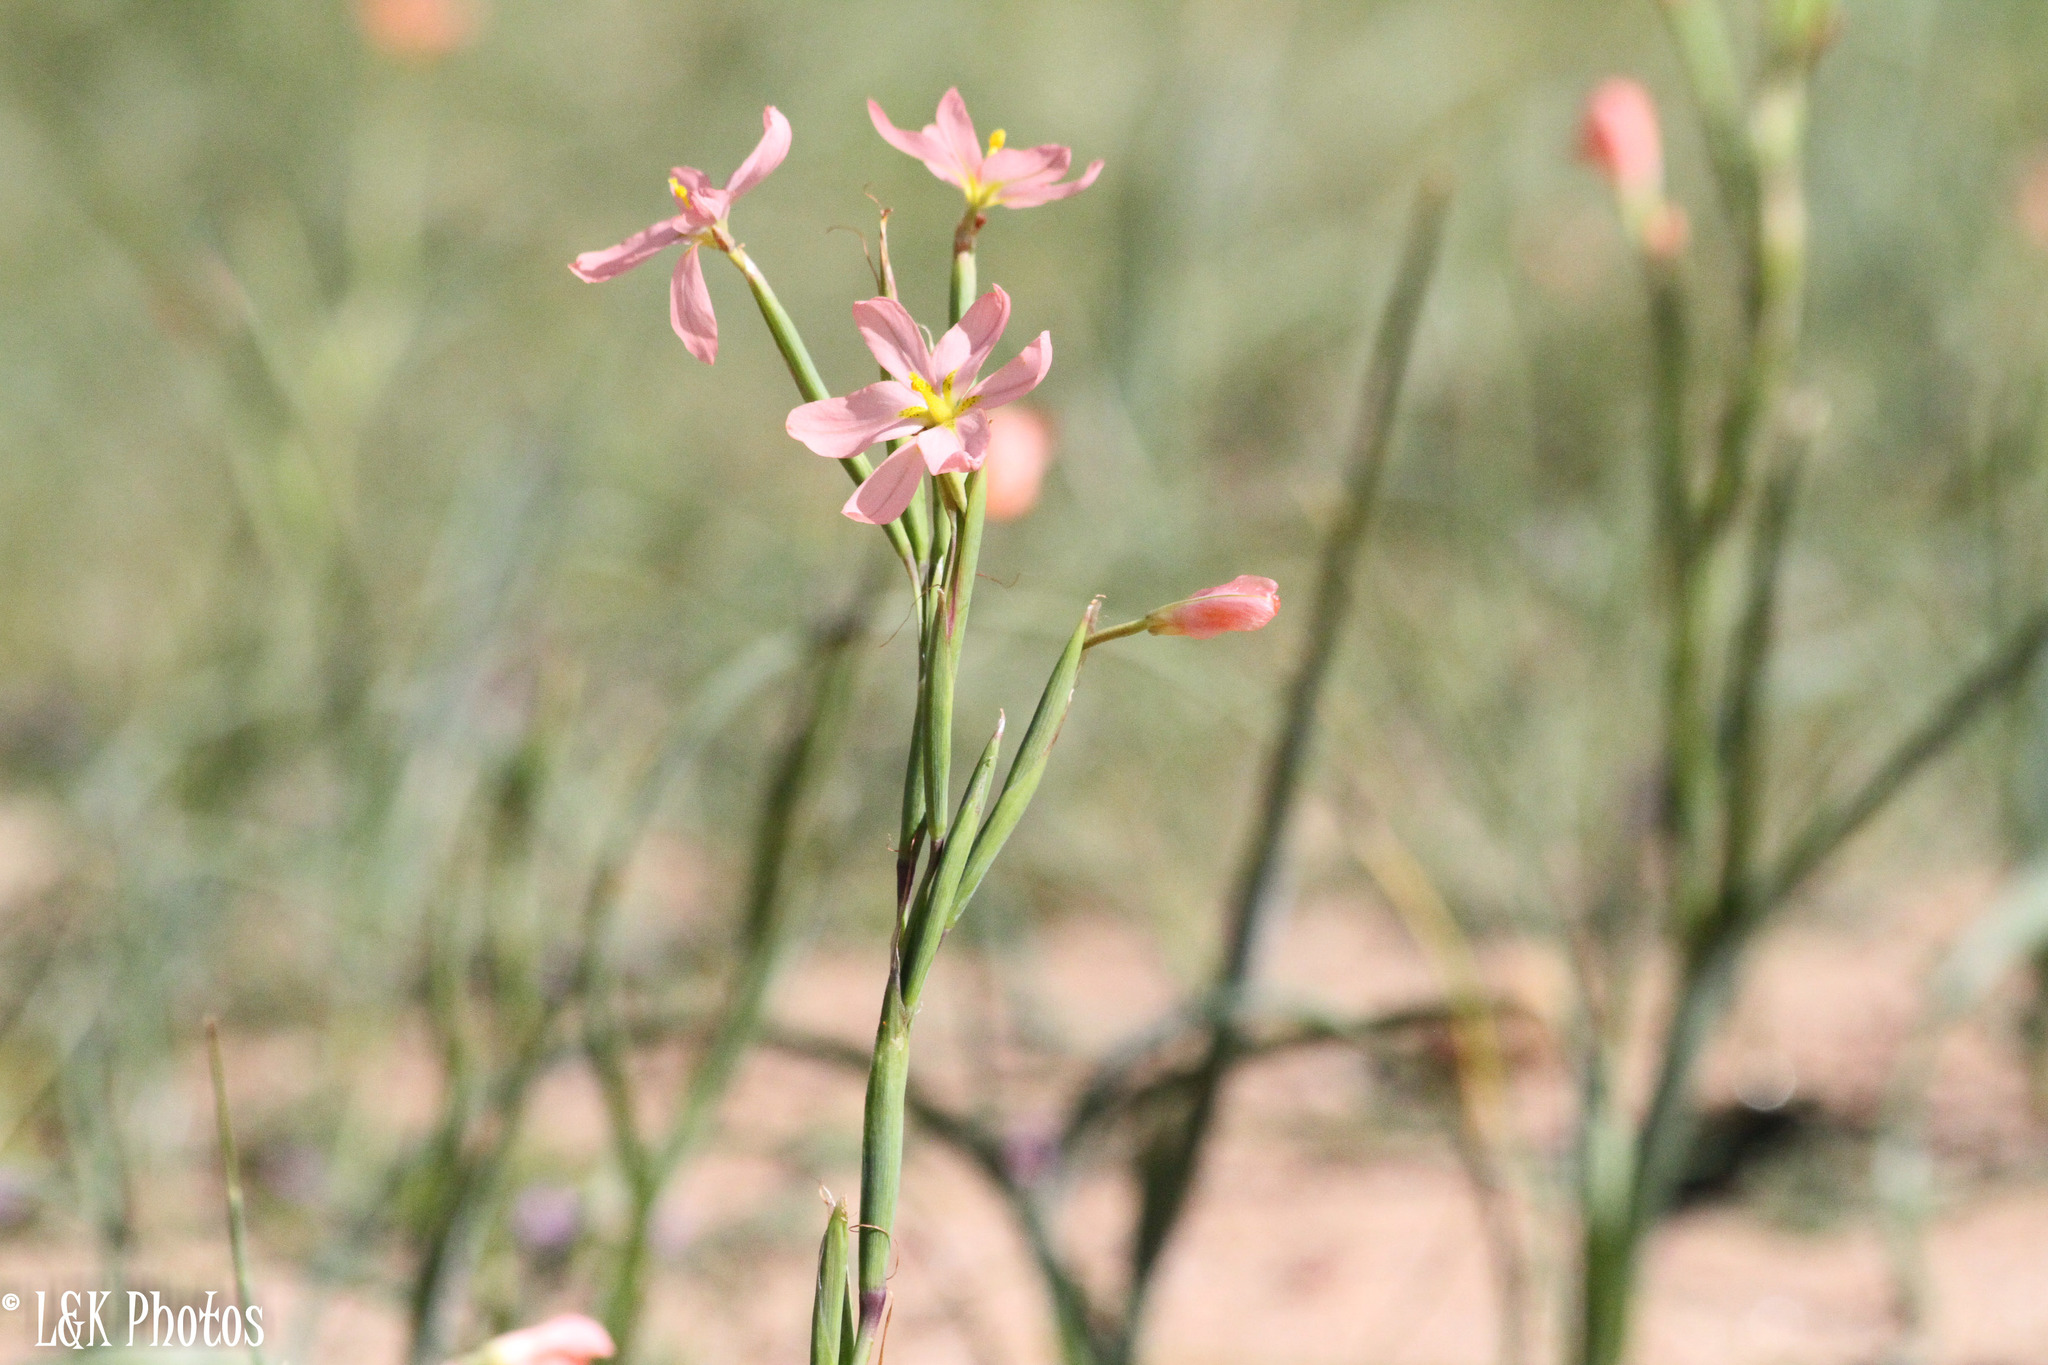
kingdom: Plantae
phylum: Tracheophyta
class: Liliopsida
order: Asparagales
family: Iridaceae
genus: Moraea
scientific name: Moraea miniata
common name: Two-leaf cape-tulip
